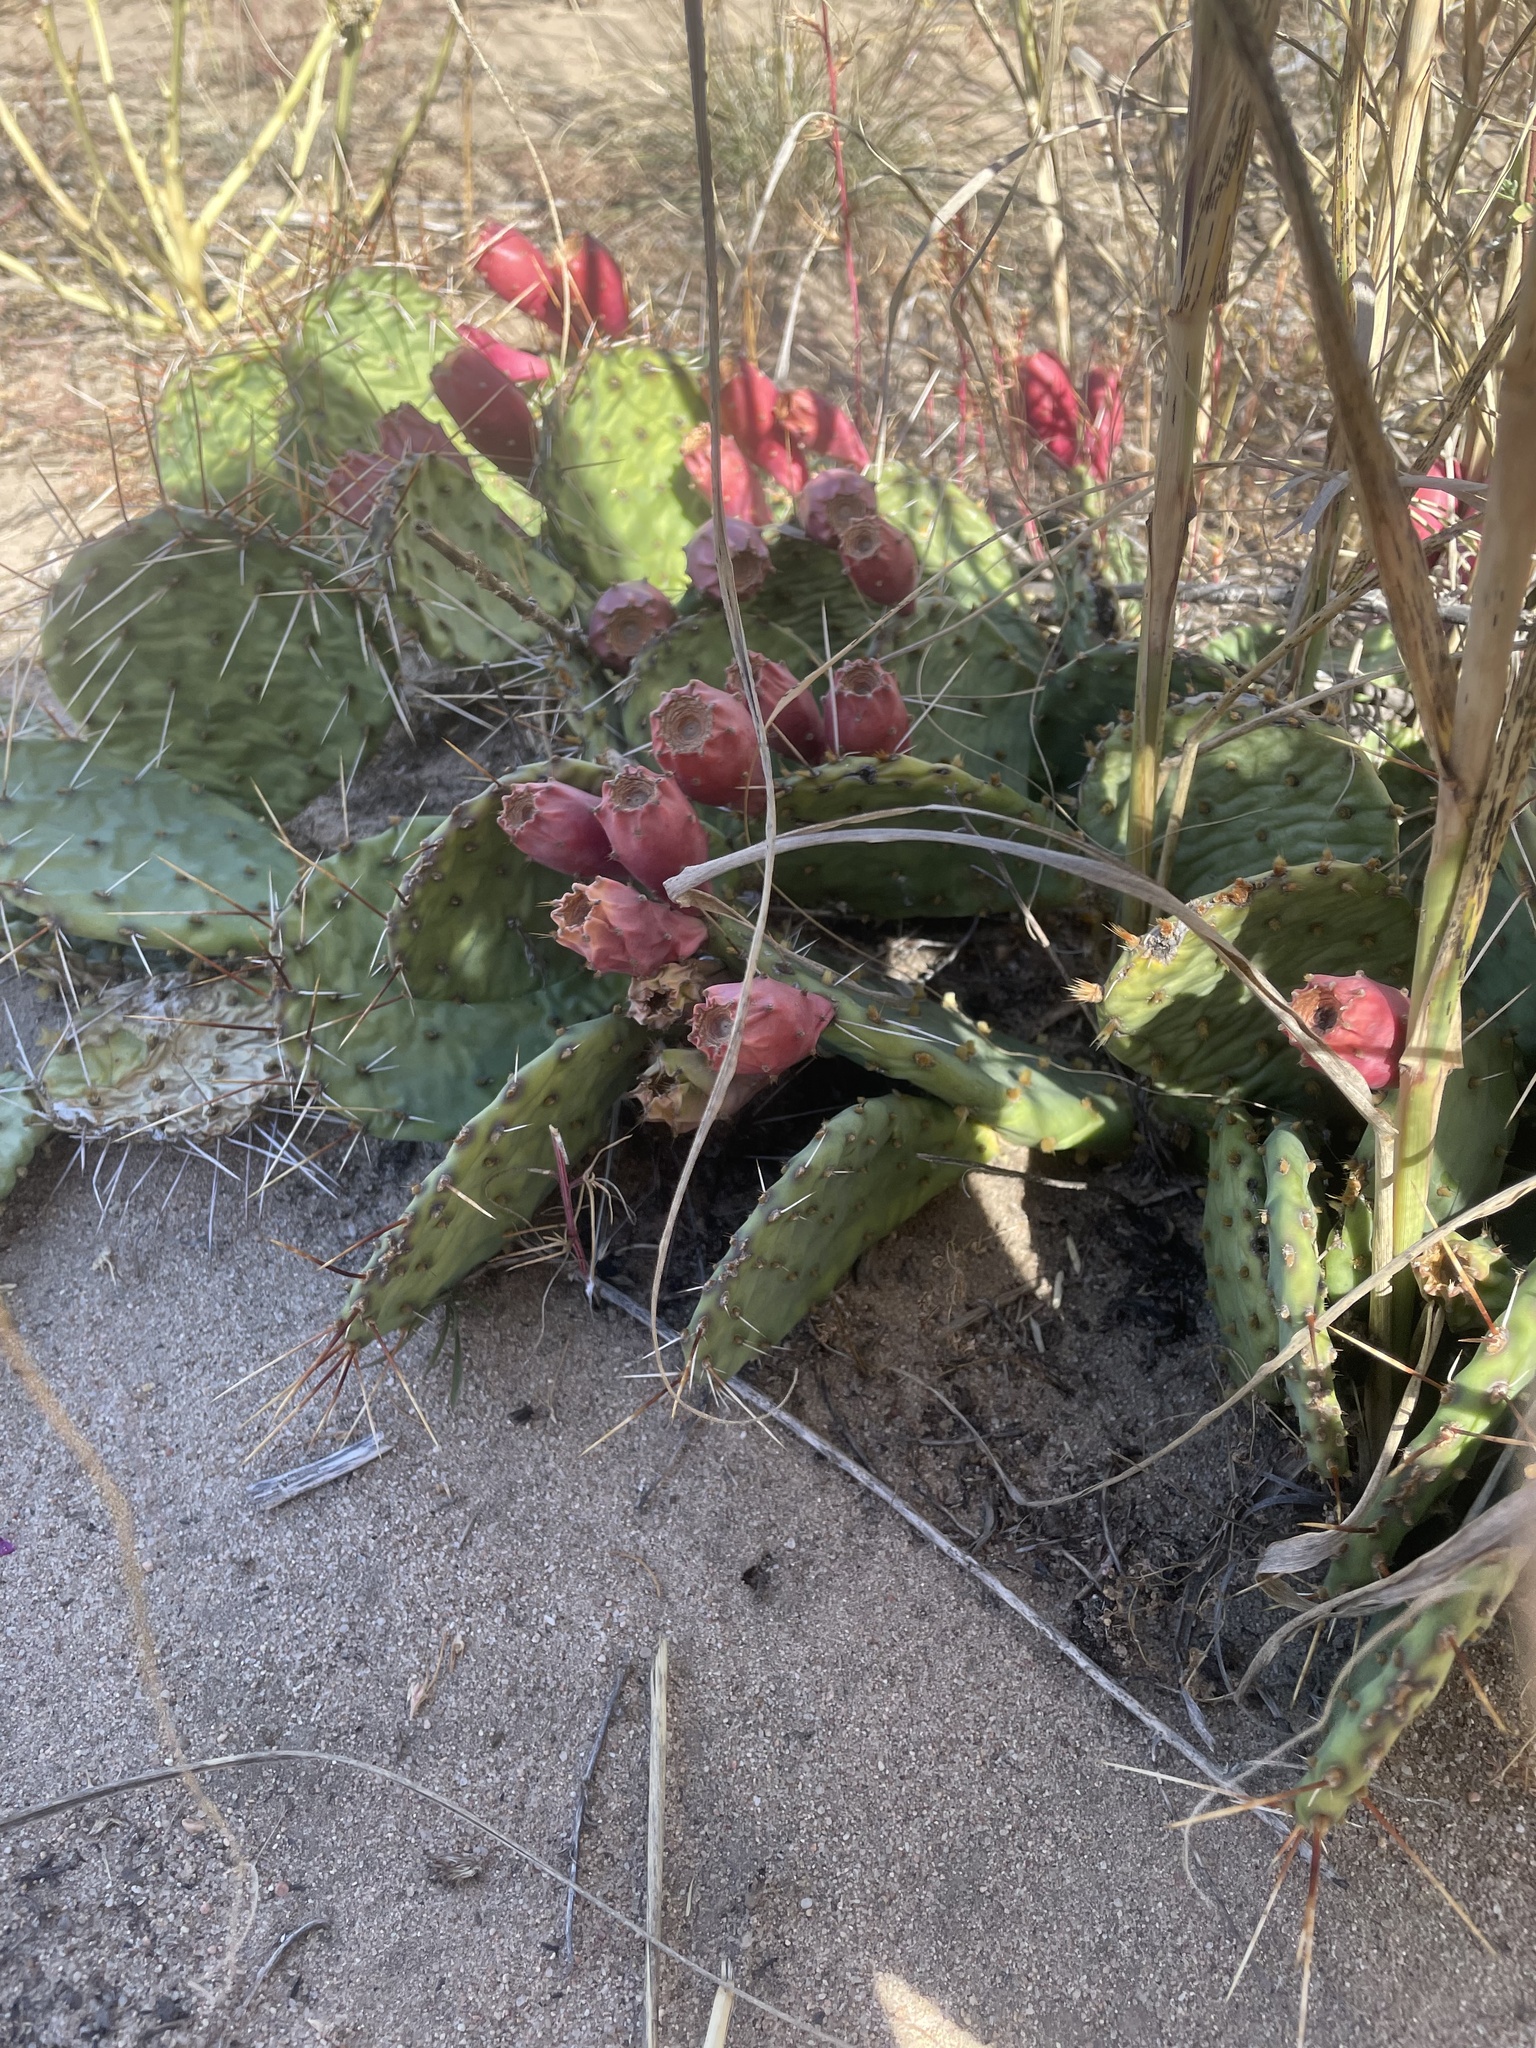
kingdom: Plantae
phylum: Tracheophyta
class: Magnoliopsida
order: Caryophyllales
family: Cactaceae
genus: Opuntia
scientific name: Opuntia macrorhiza
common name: Grassland pricklypear
